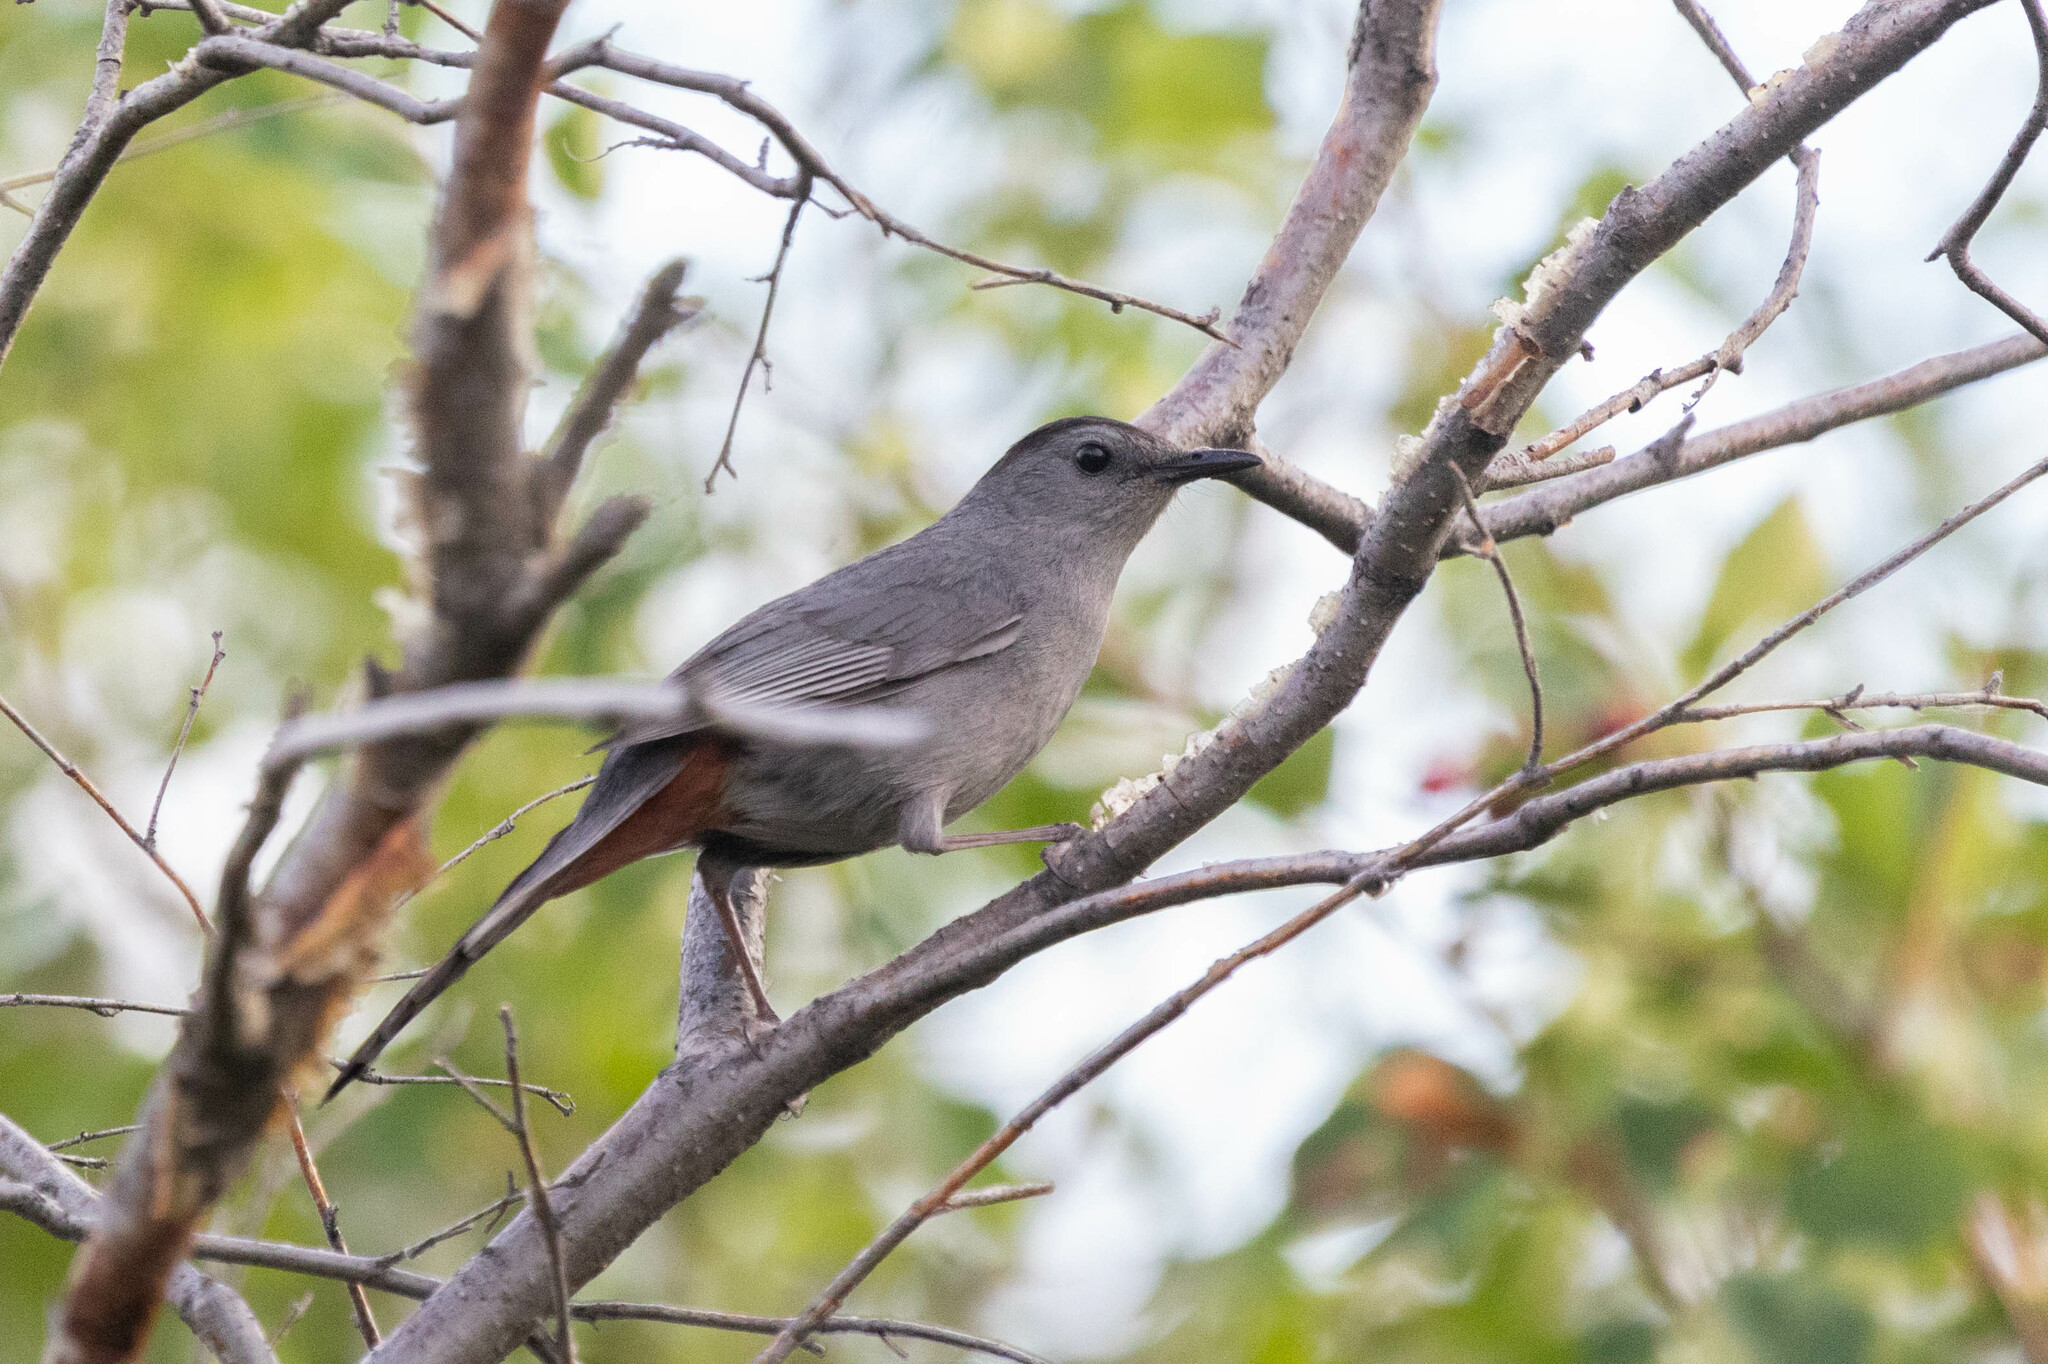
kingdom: Animalia
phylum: Chordata
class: Aves
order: Passeriformes
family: Mimidae
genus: Dumetella
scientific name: Dumetella carolinensis
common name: Gray catbird
